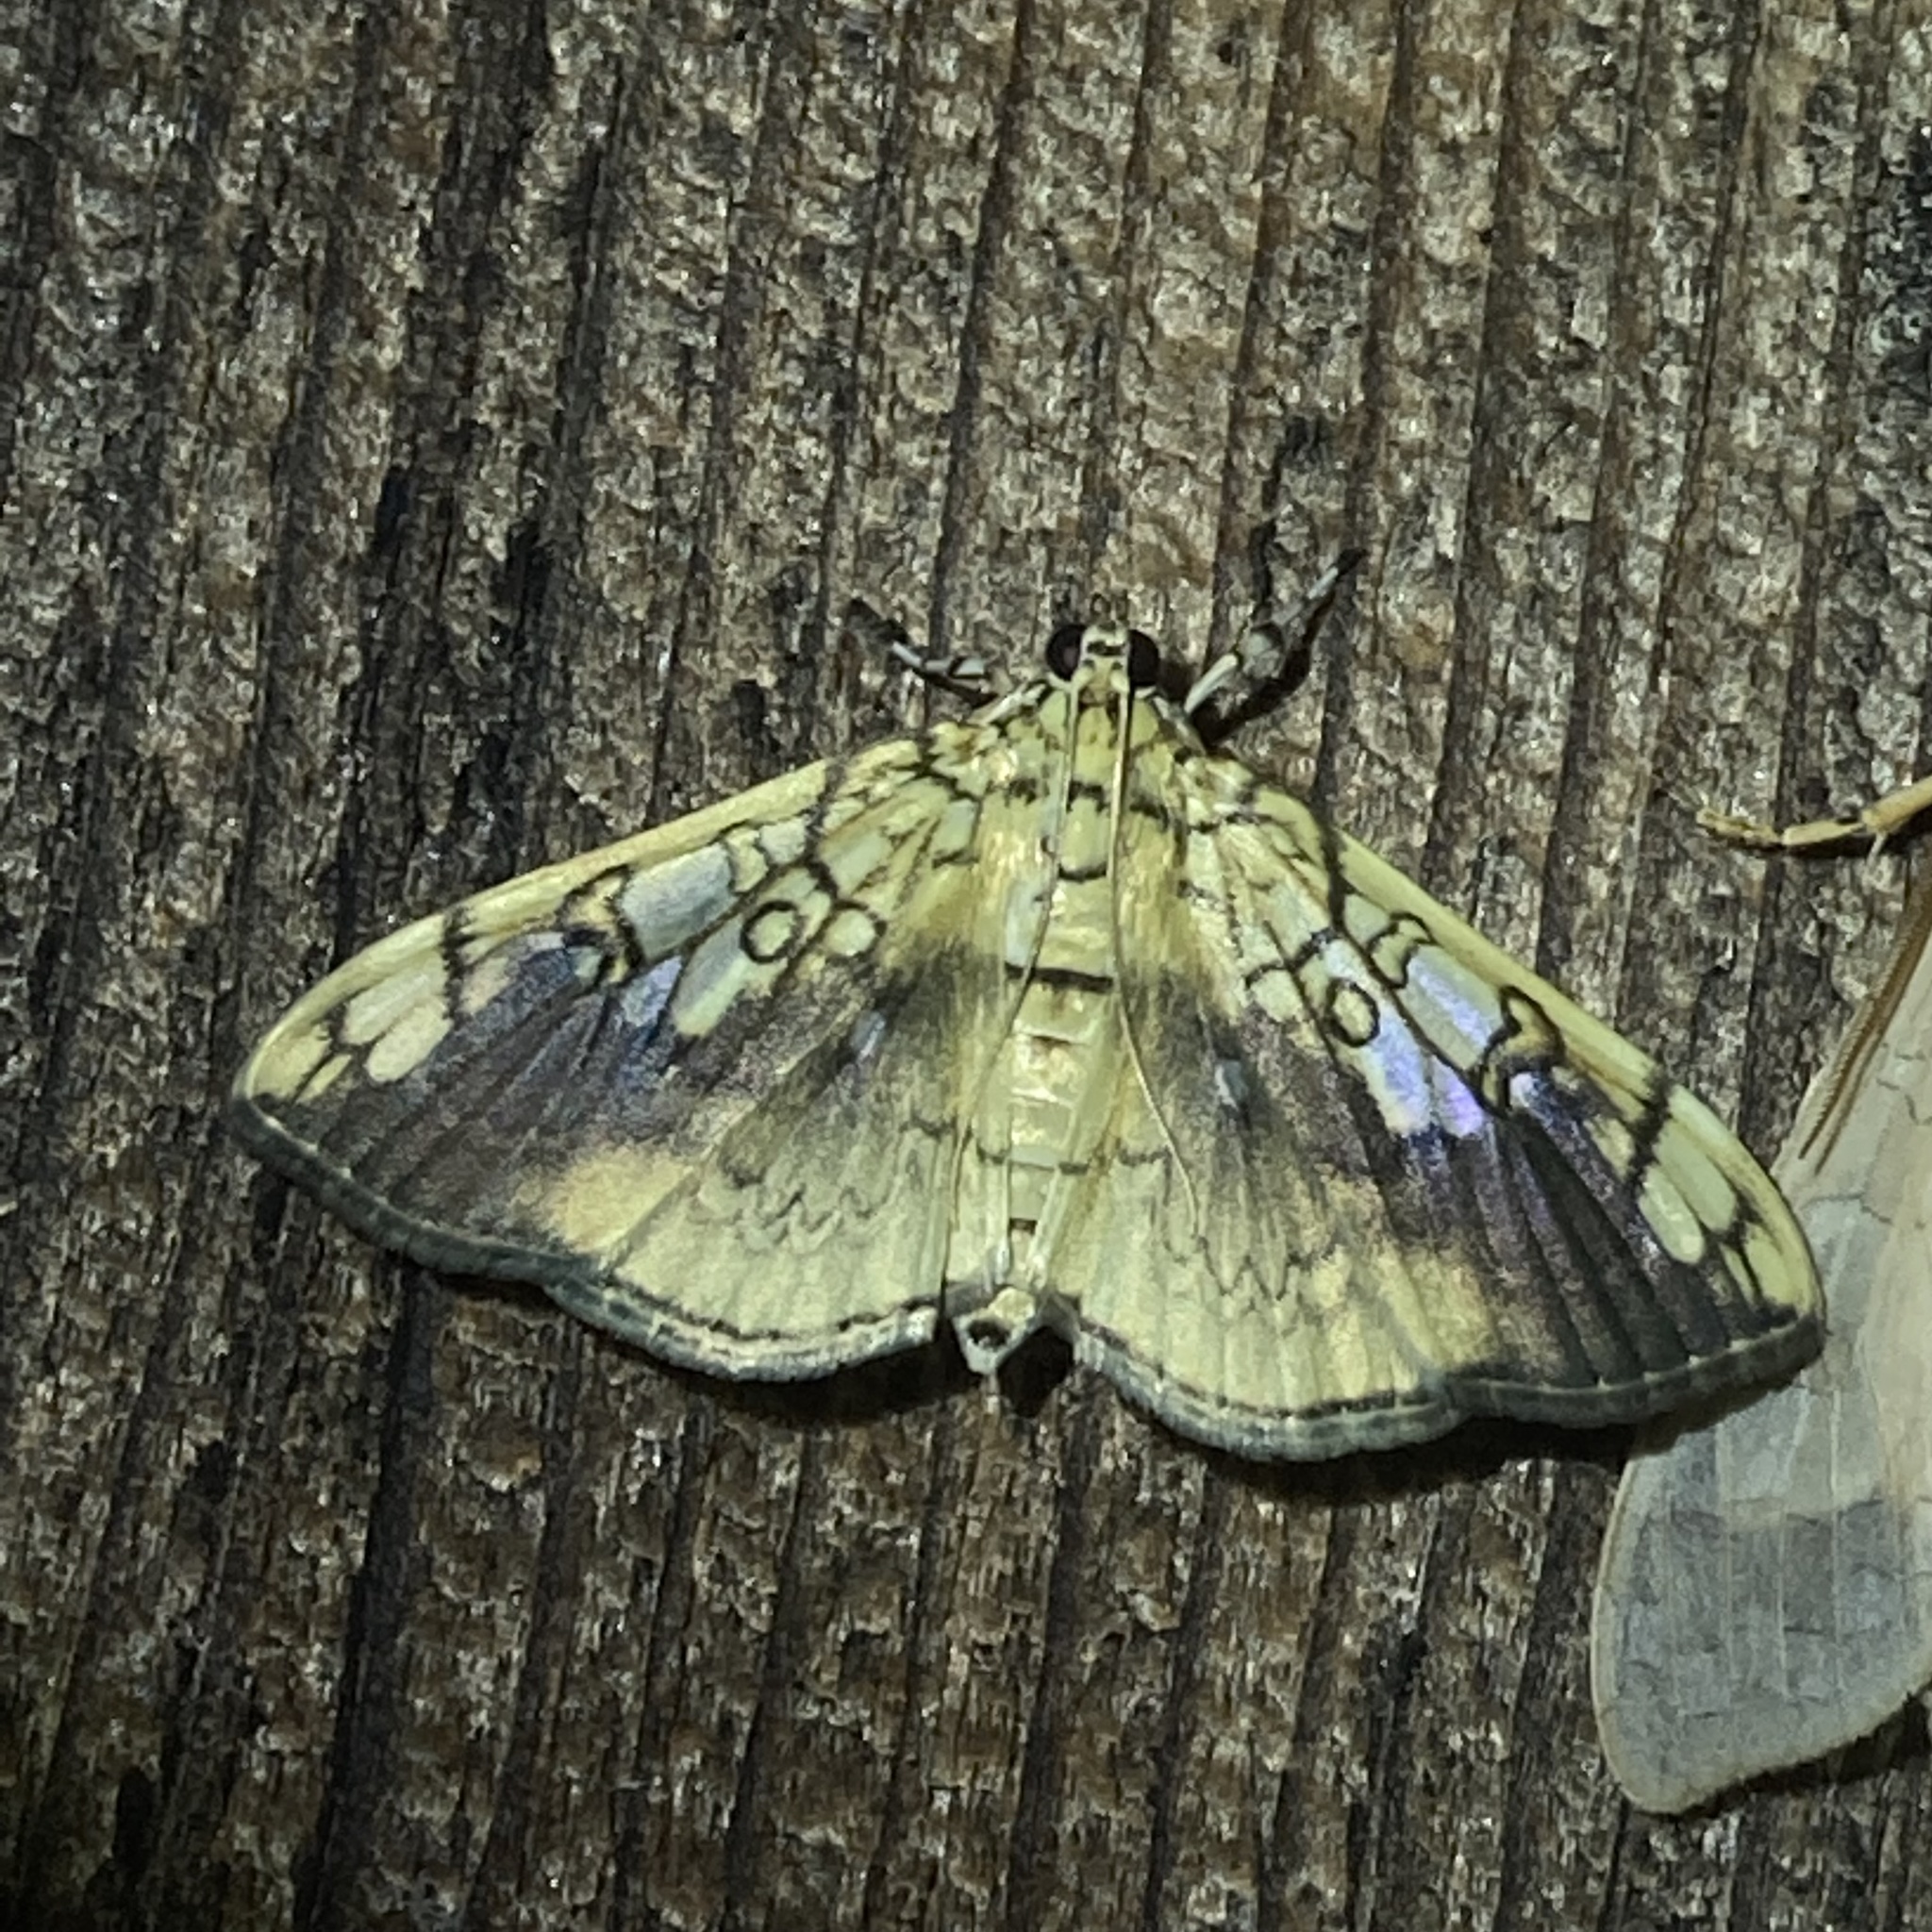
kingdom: Animalia
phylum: Arthropoda
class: Insecta
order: Lepidoptera
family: Crambidae
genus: Pantographa
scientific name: Pantographa limata
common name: Basswood leafroller moth
